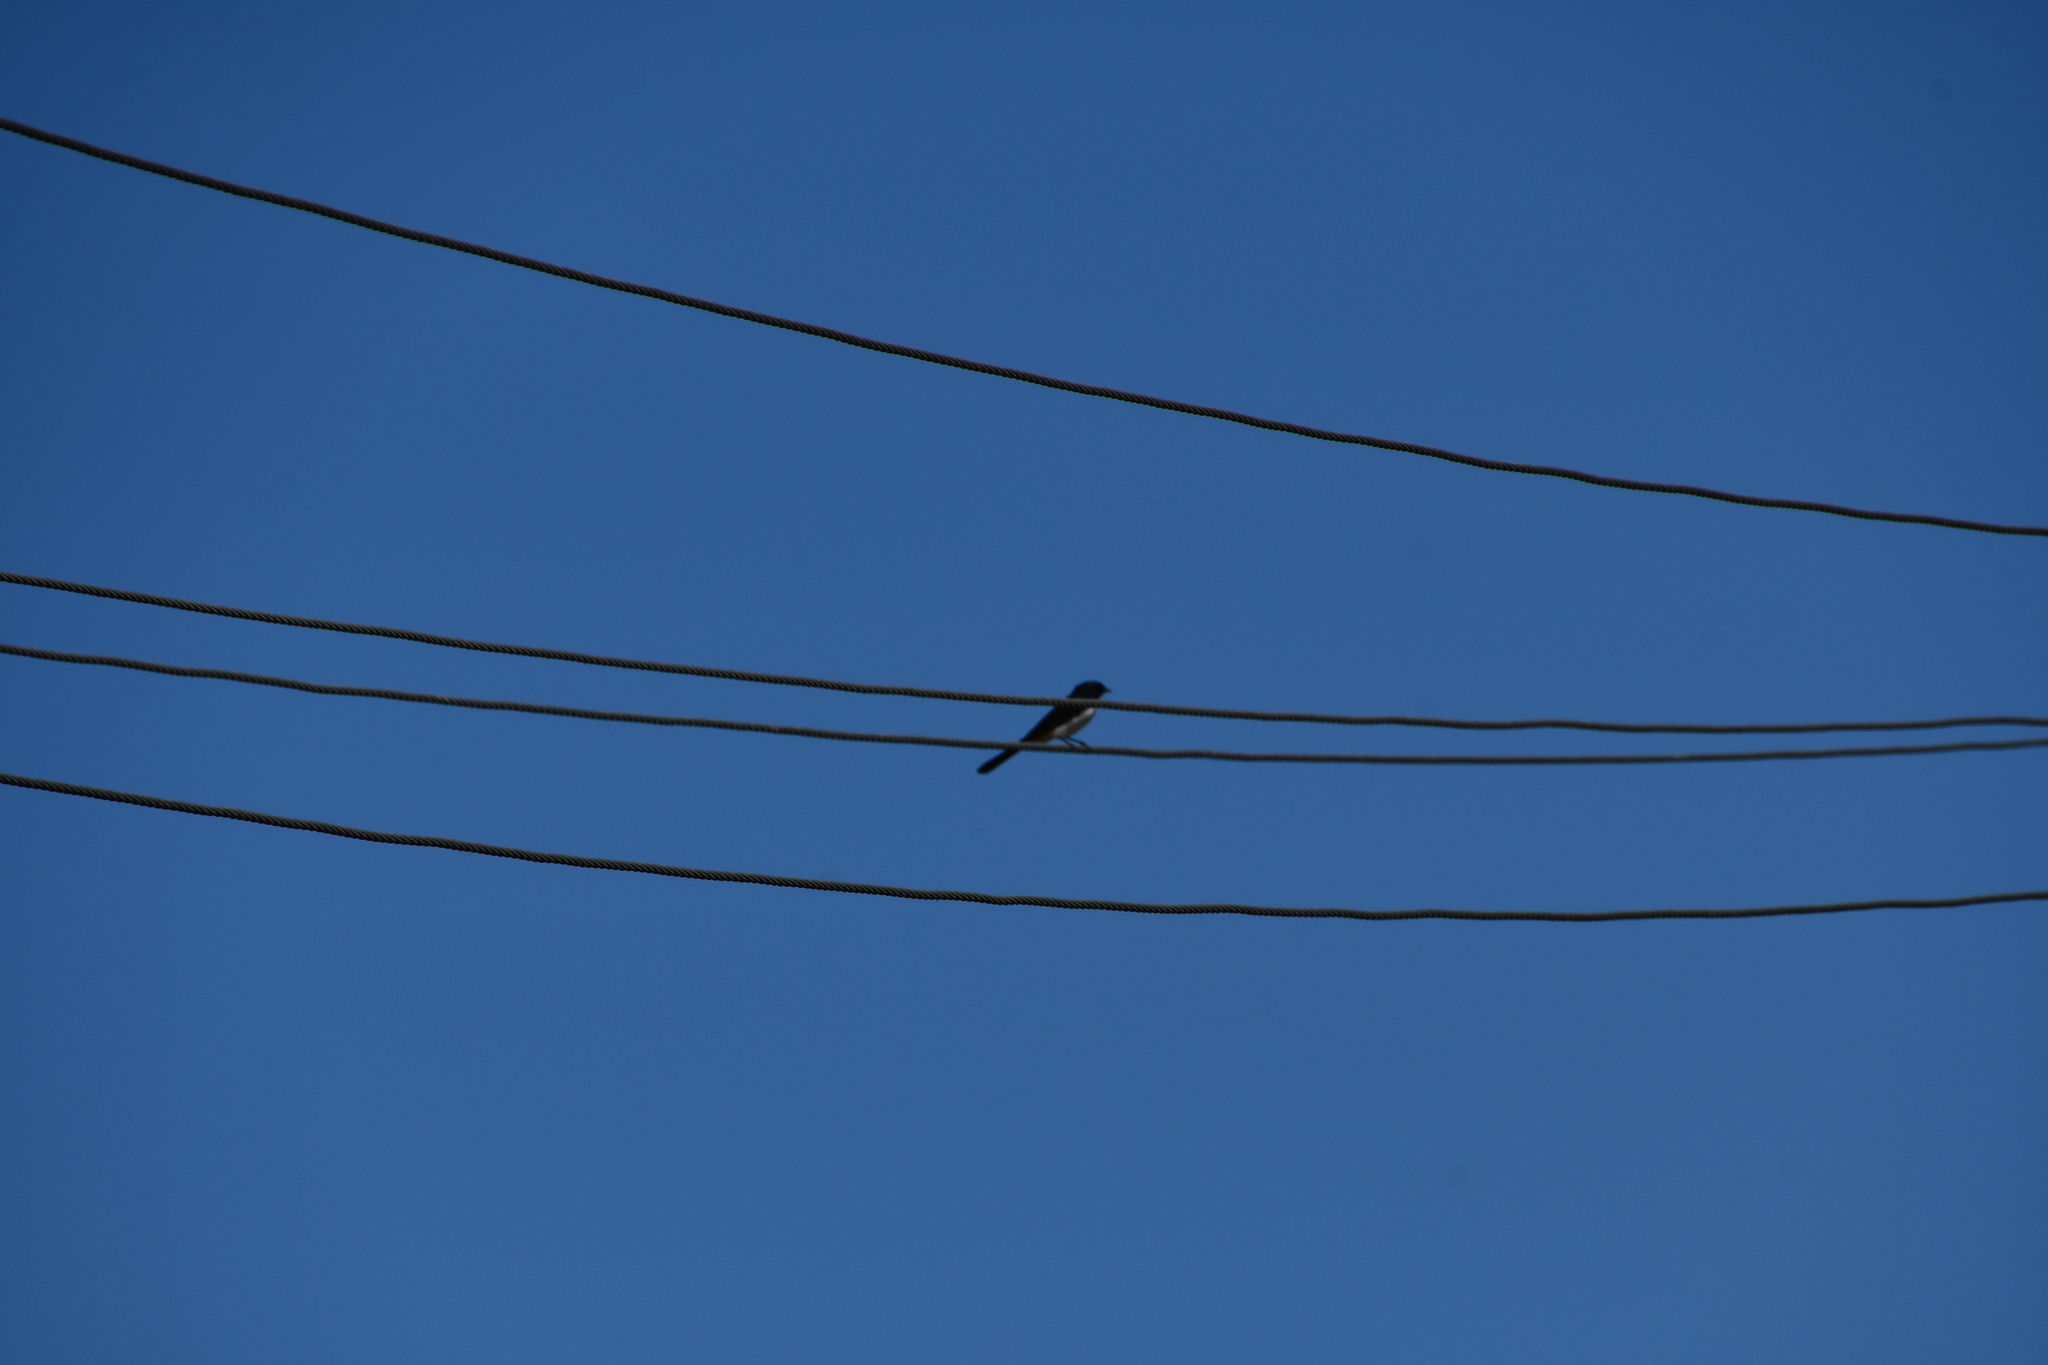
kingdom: Animalia
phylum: Chordata
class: Aves
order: Passeriformes
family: Rhipiduridae
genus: Rhipidura
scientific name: Rhipidura leucophrys
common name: Willie wagtail
